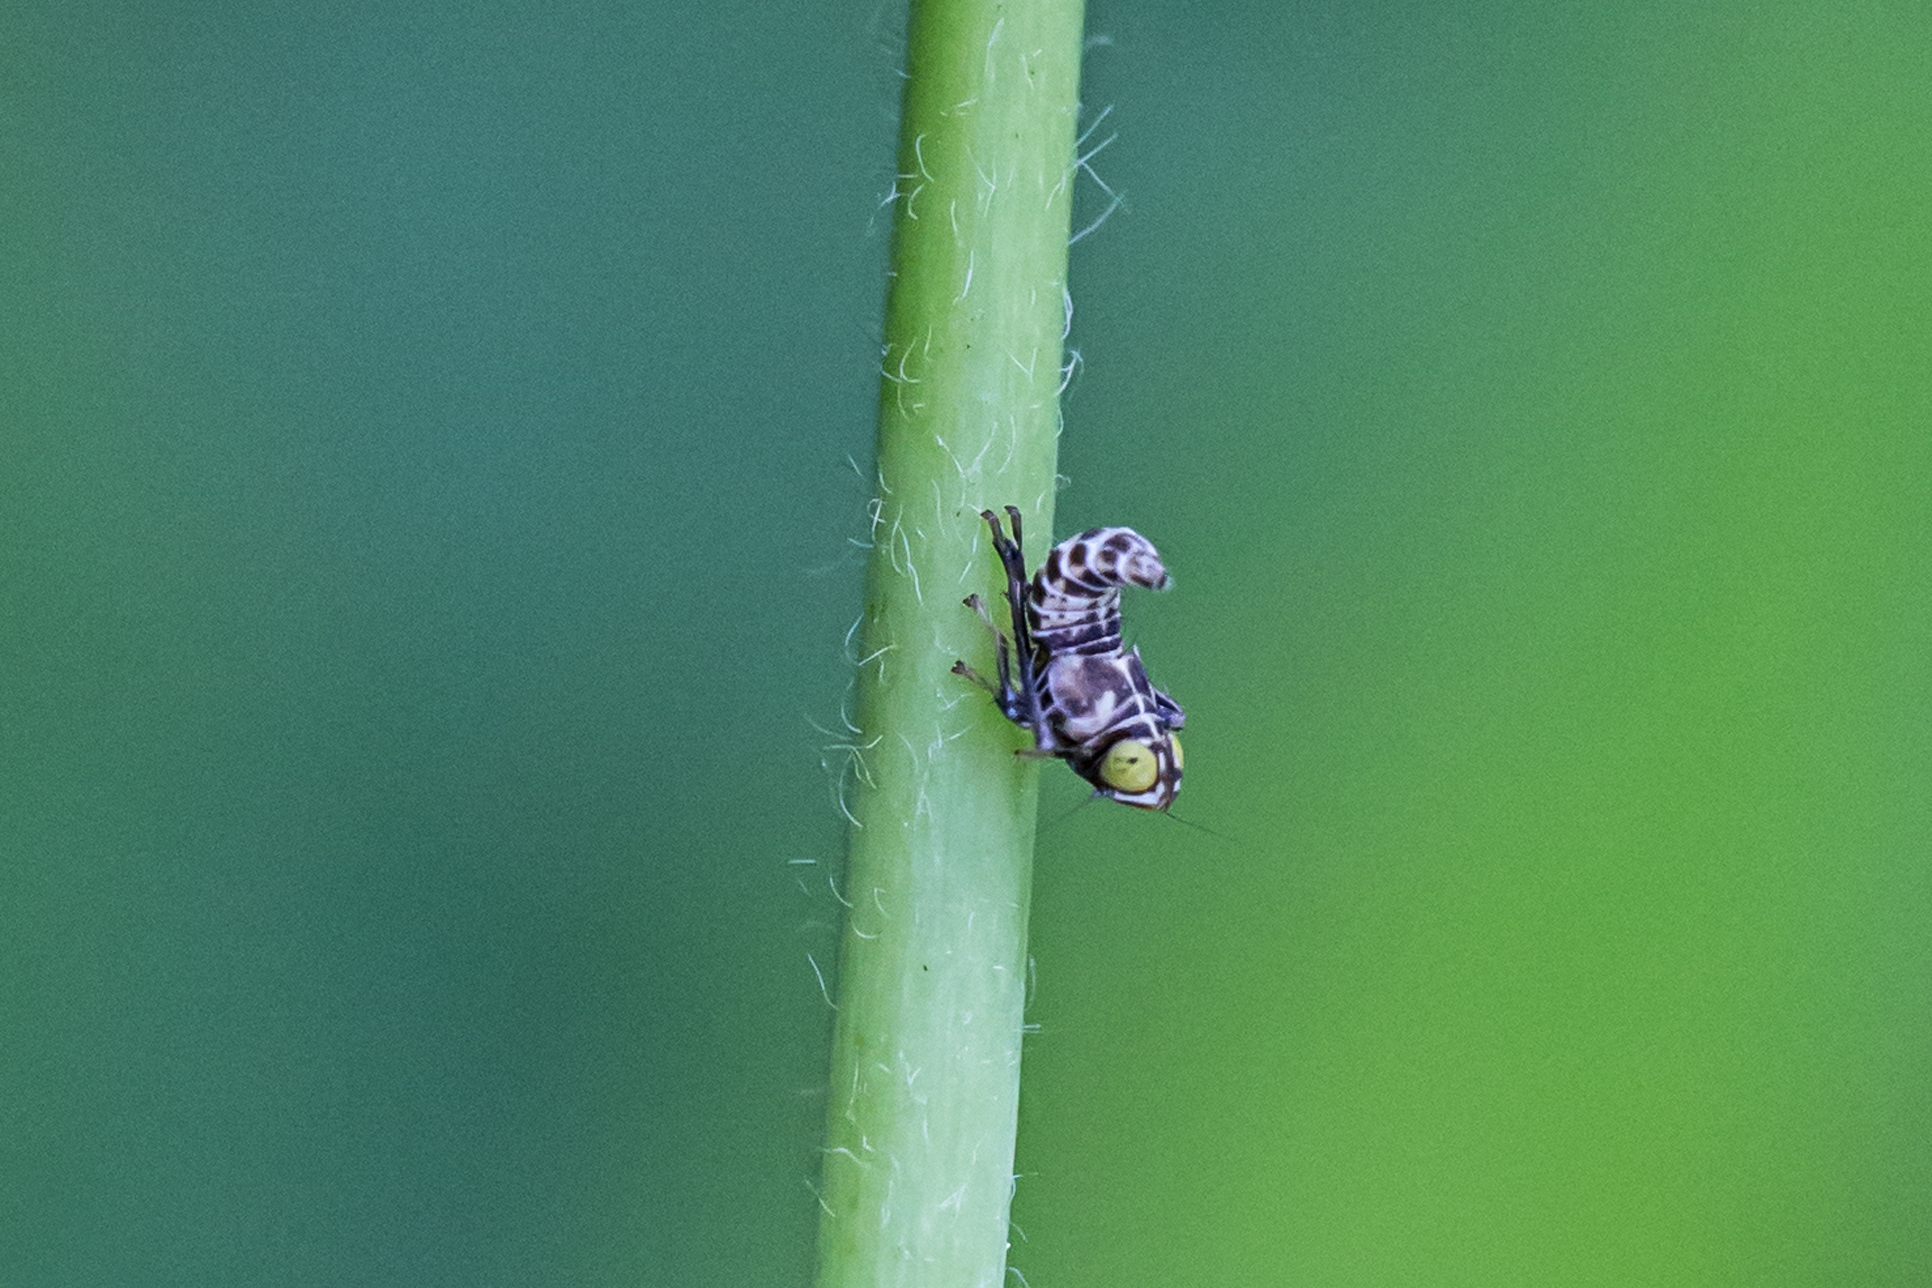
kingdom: Animalia
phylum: Arthropoda
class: Insecta
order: Hemiptera
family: Cicadellidae
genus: Jikradia
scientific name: Jikradia olitoria
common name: Coppery leafhopper
